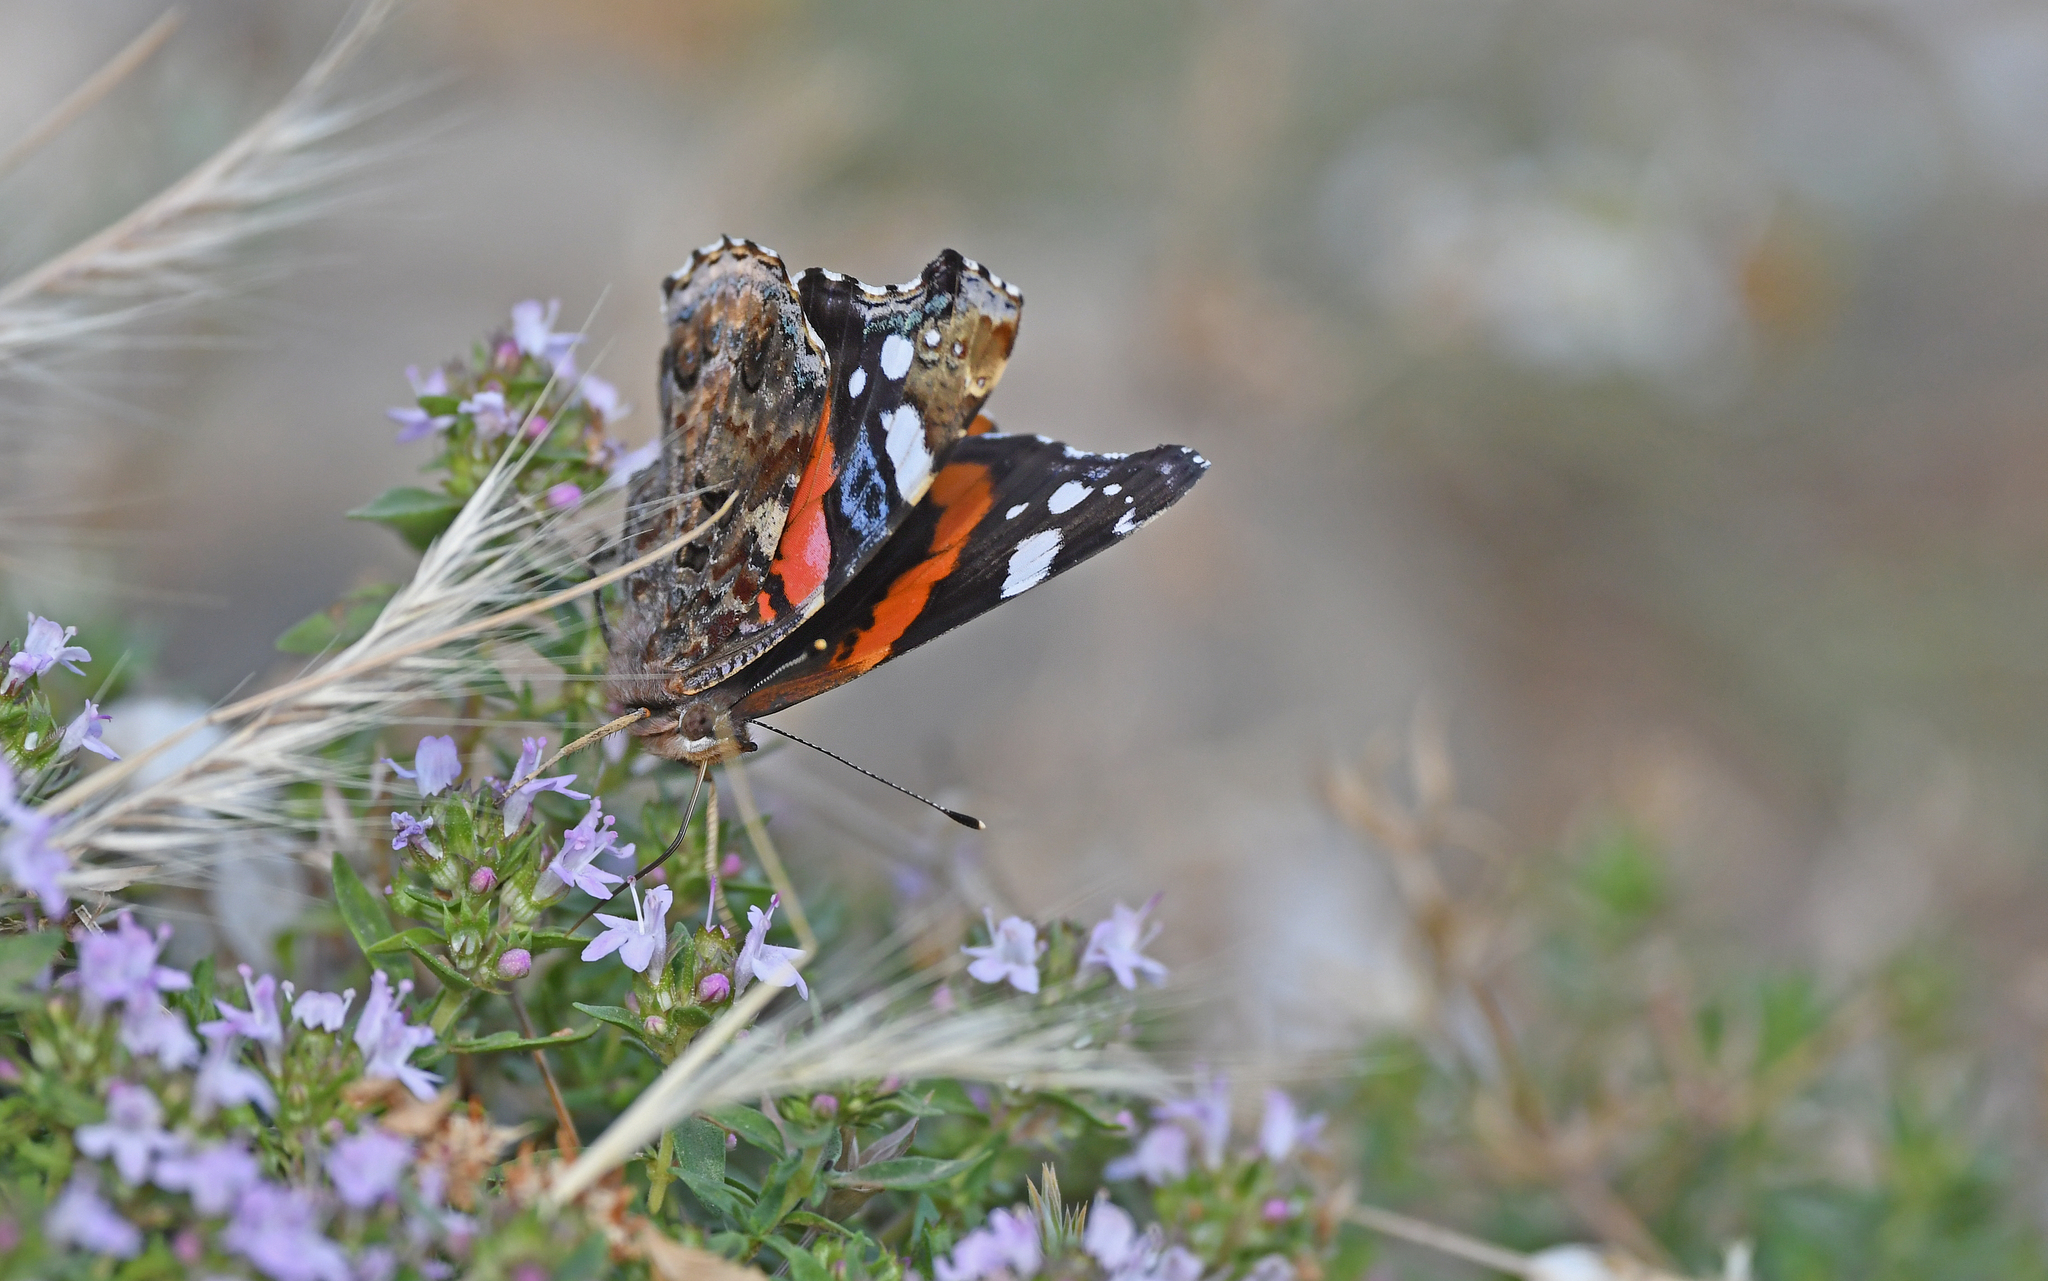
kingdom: Animalia
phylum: Arthropoda
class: Insecta
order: Lepidoptera
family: Nymphalidae
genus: Vanessa
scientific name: Vanessa atalanta
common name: Red admiral
